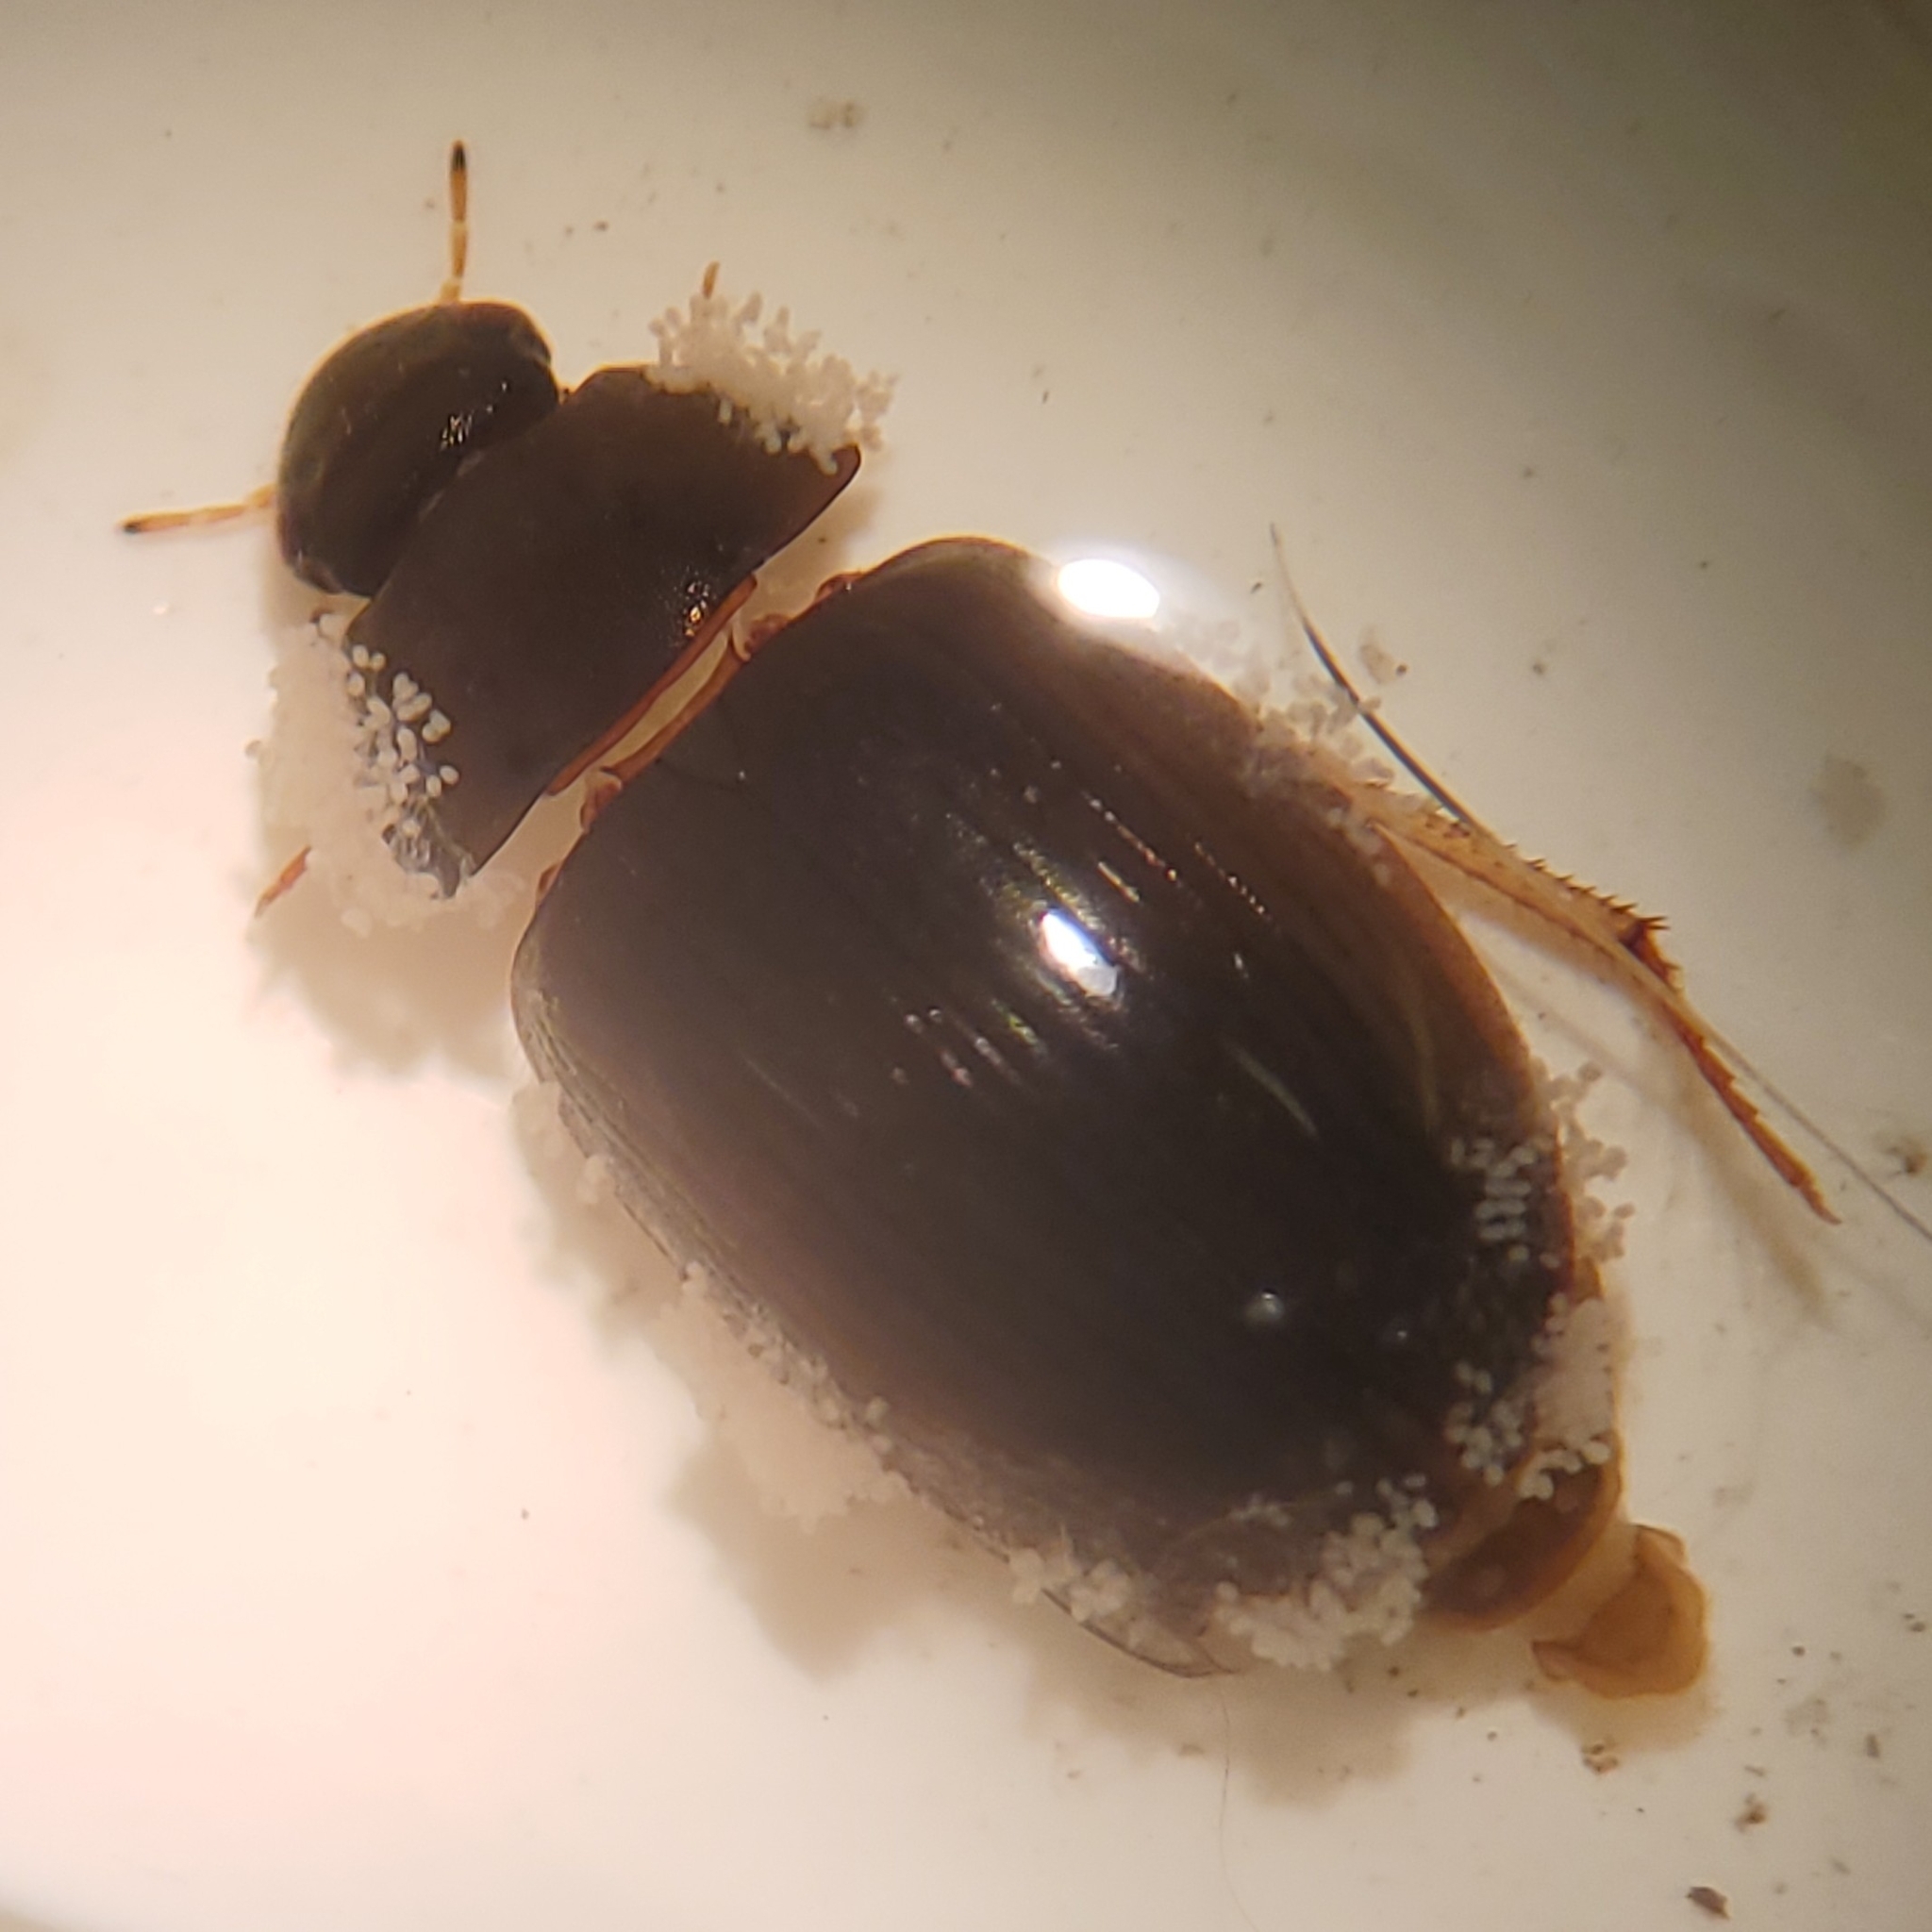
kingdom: Animalia
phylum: Arthropoda
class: Insecta
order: Coleoptera
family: Hydrophilidae
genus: Hydrobius
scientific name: Hydrobius fuscipes
